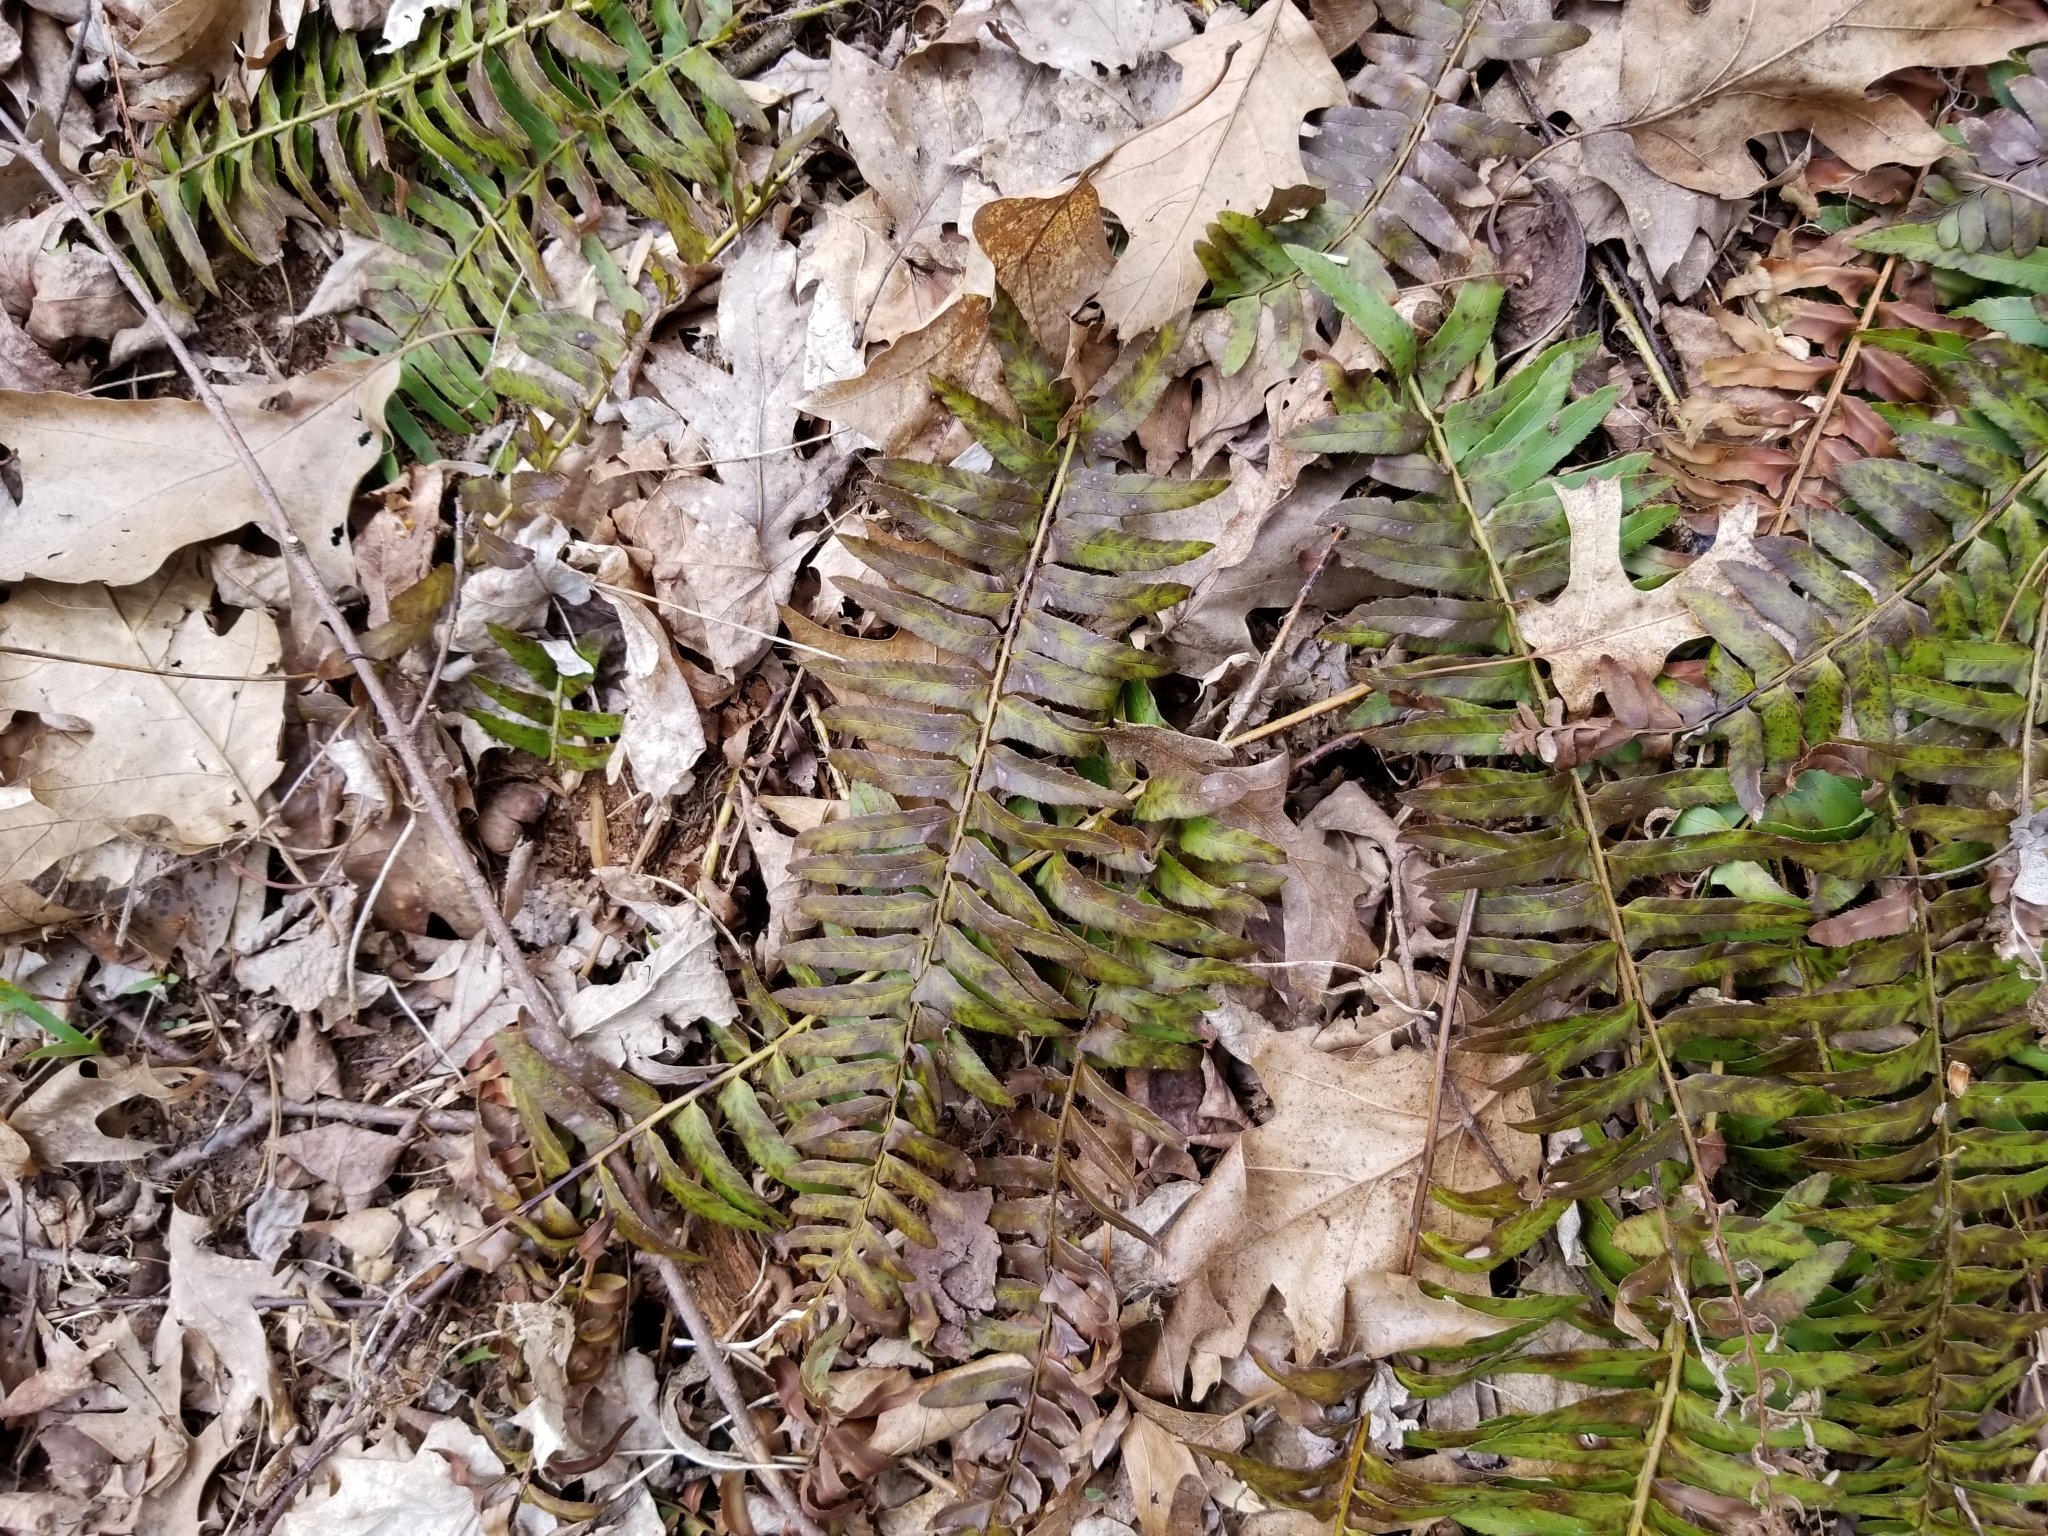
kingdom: Plantae
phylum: Tracheophyta
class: Polypodiopsida
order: Polypodiales
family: Dryopteridaceae
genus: Polystichum
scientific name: Polystichum acrostichoides
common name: Christmas fern
